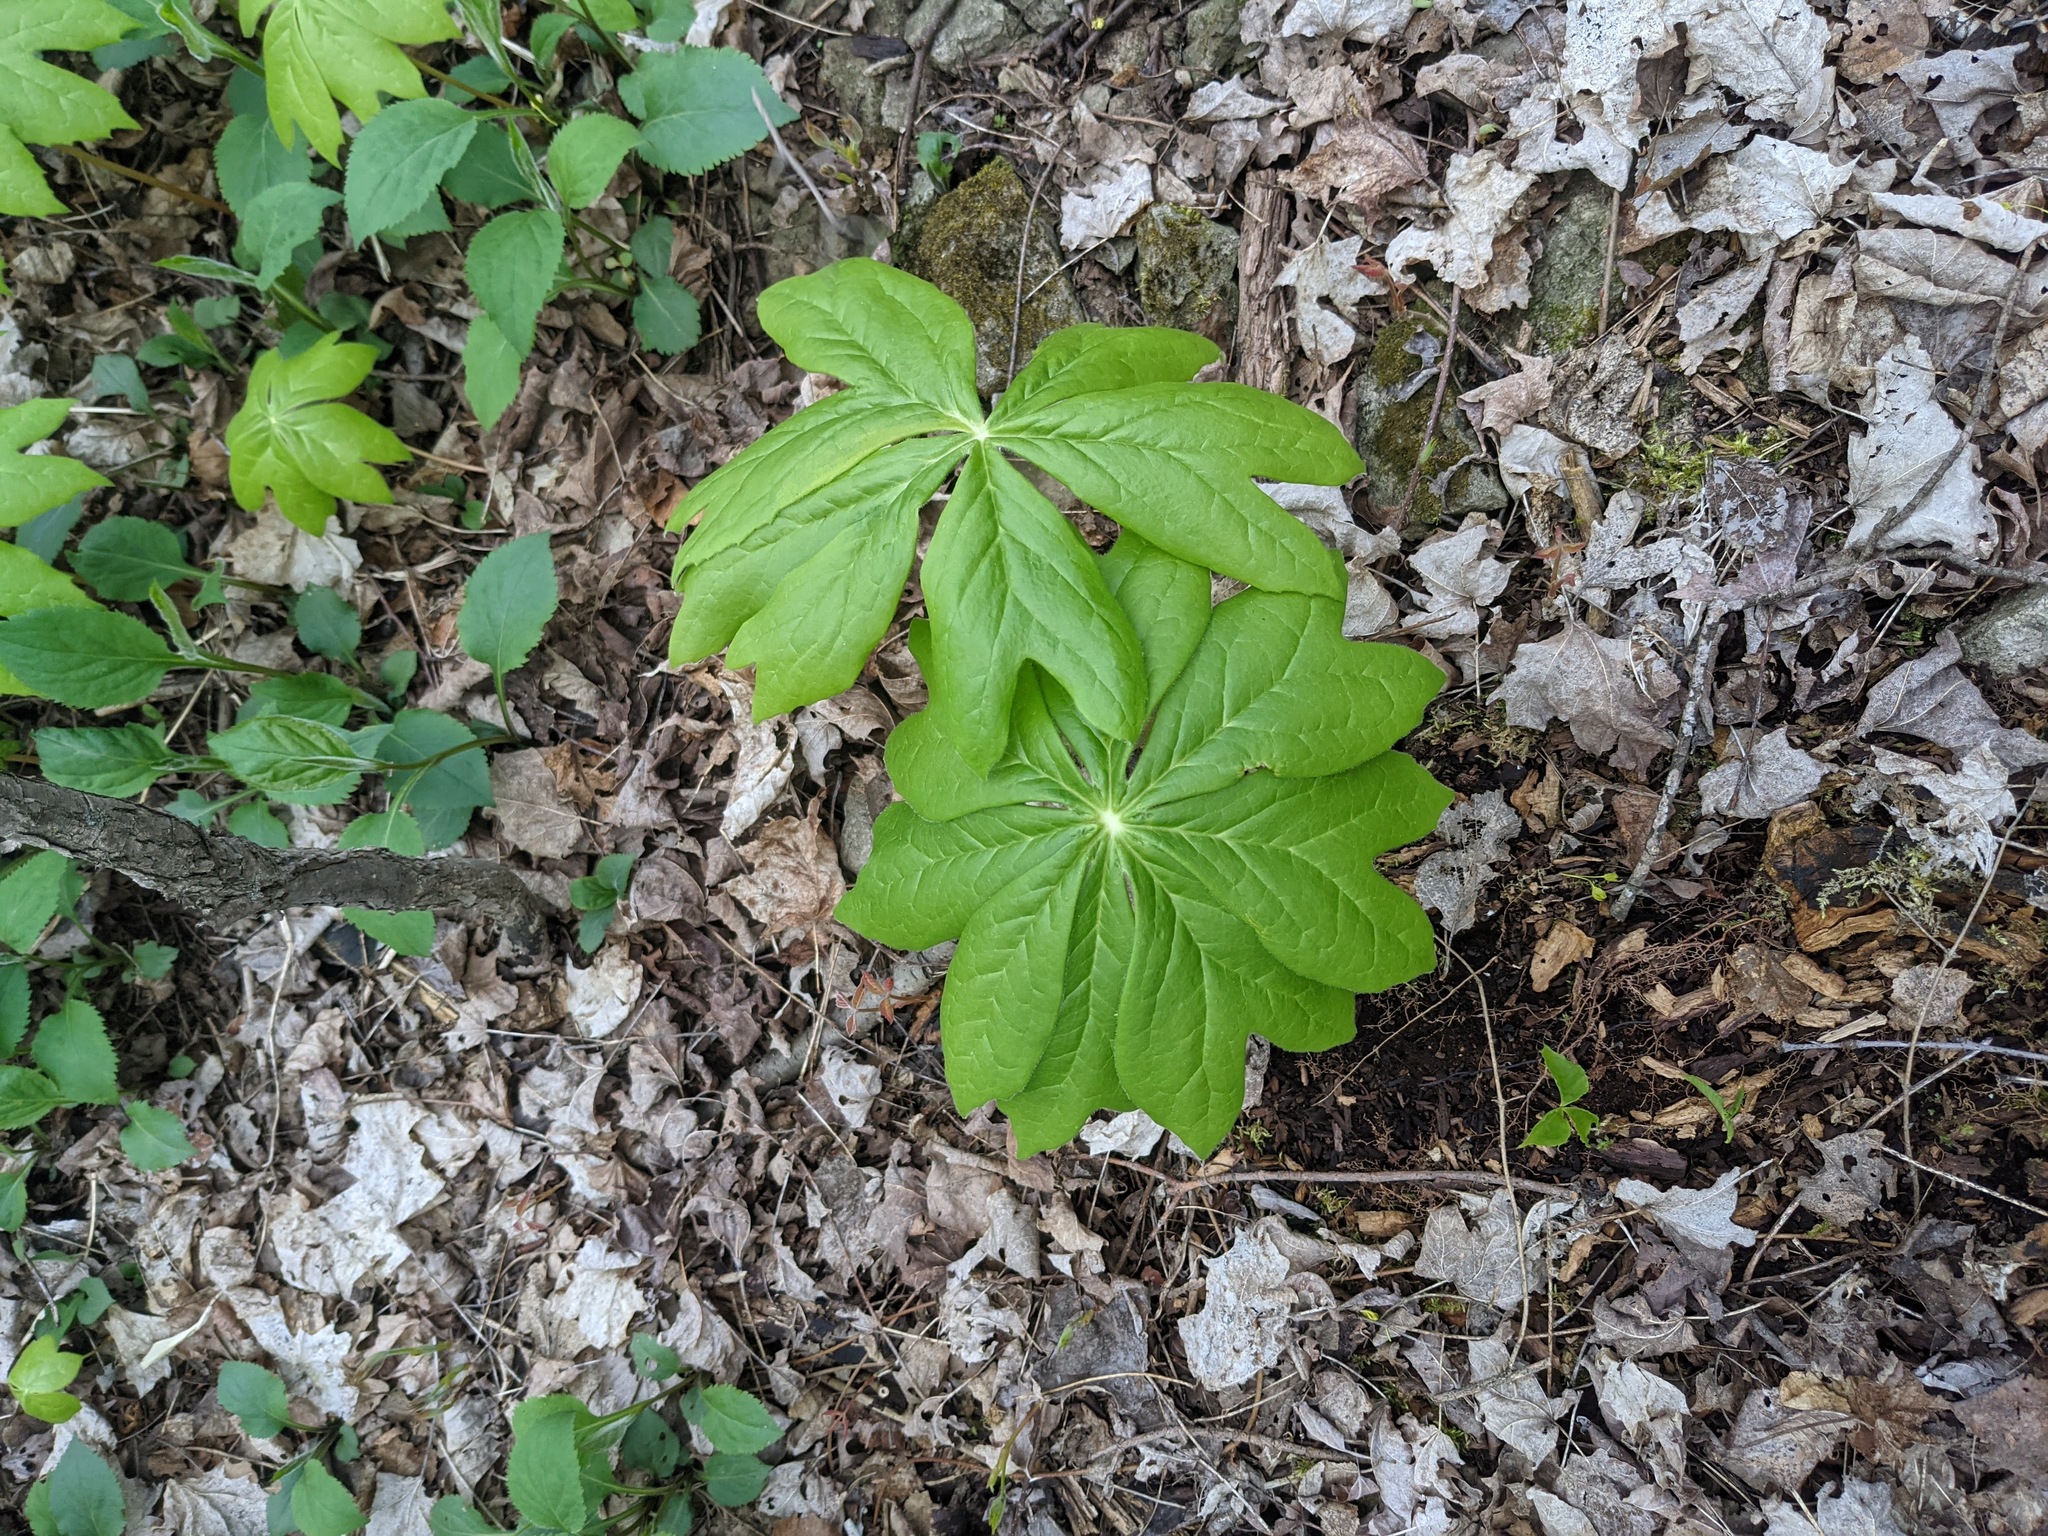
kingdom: Plantae
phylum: Tracheophyta
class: Magnoliopsida
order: Ranunculales
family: Berberidaceae
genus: Podophyllum
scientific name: Podophyllum peltatum
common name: Wild mandrake
